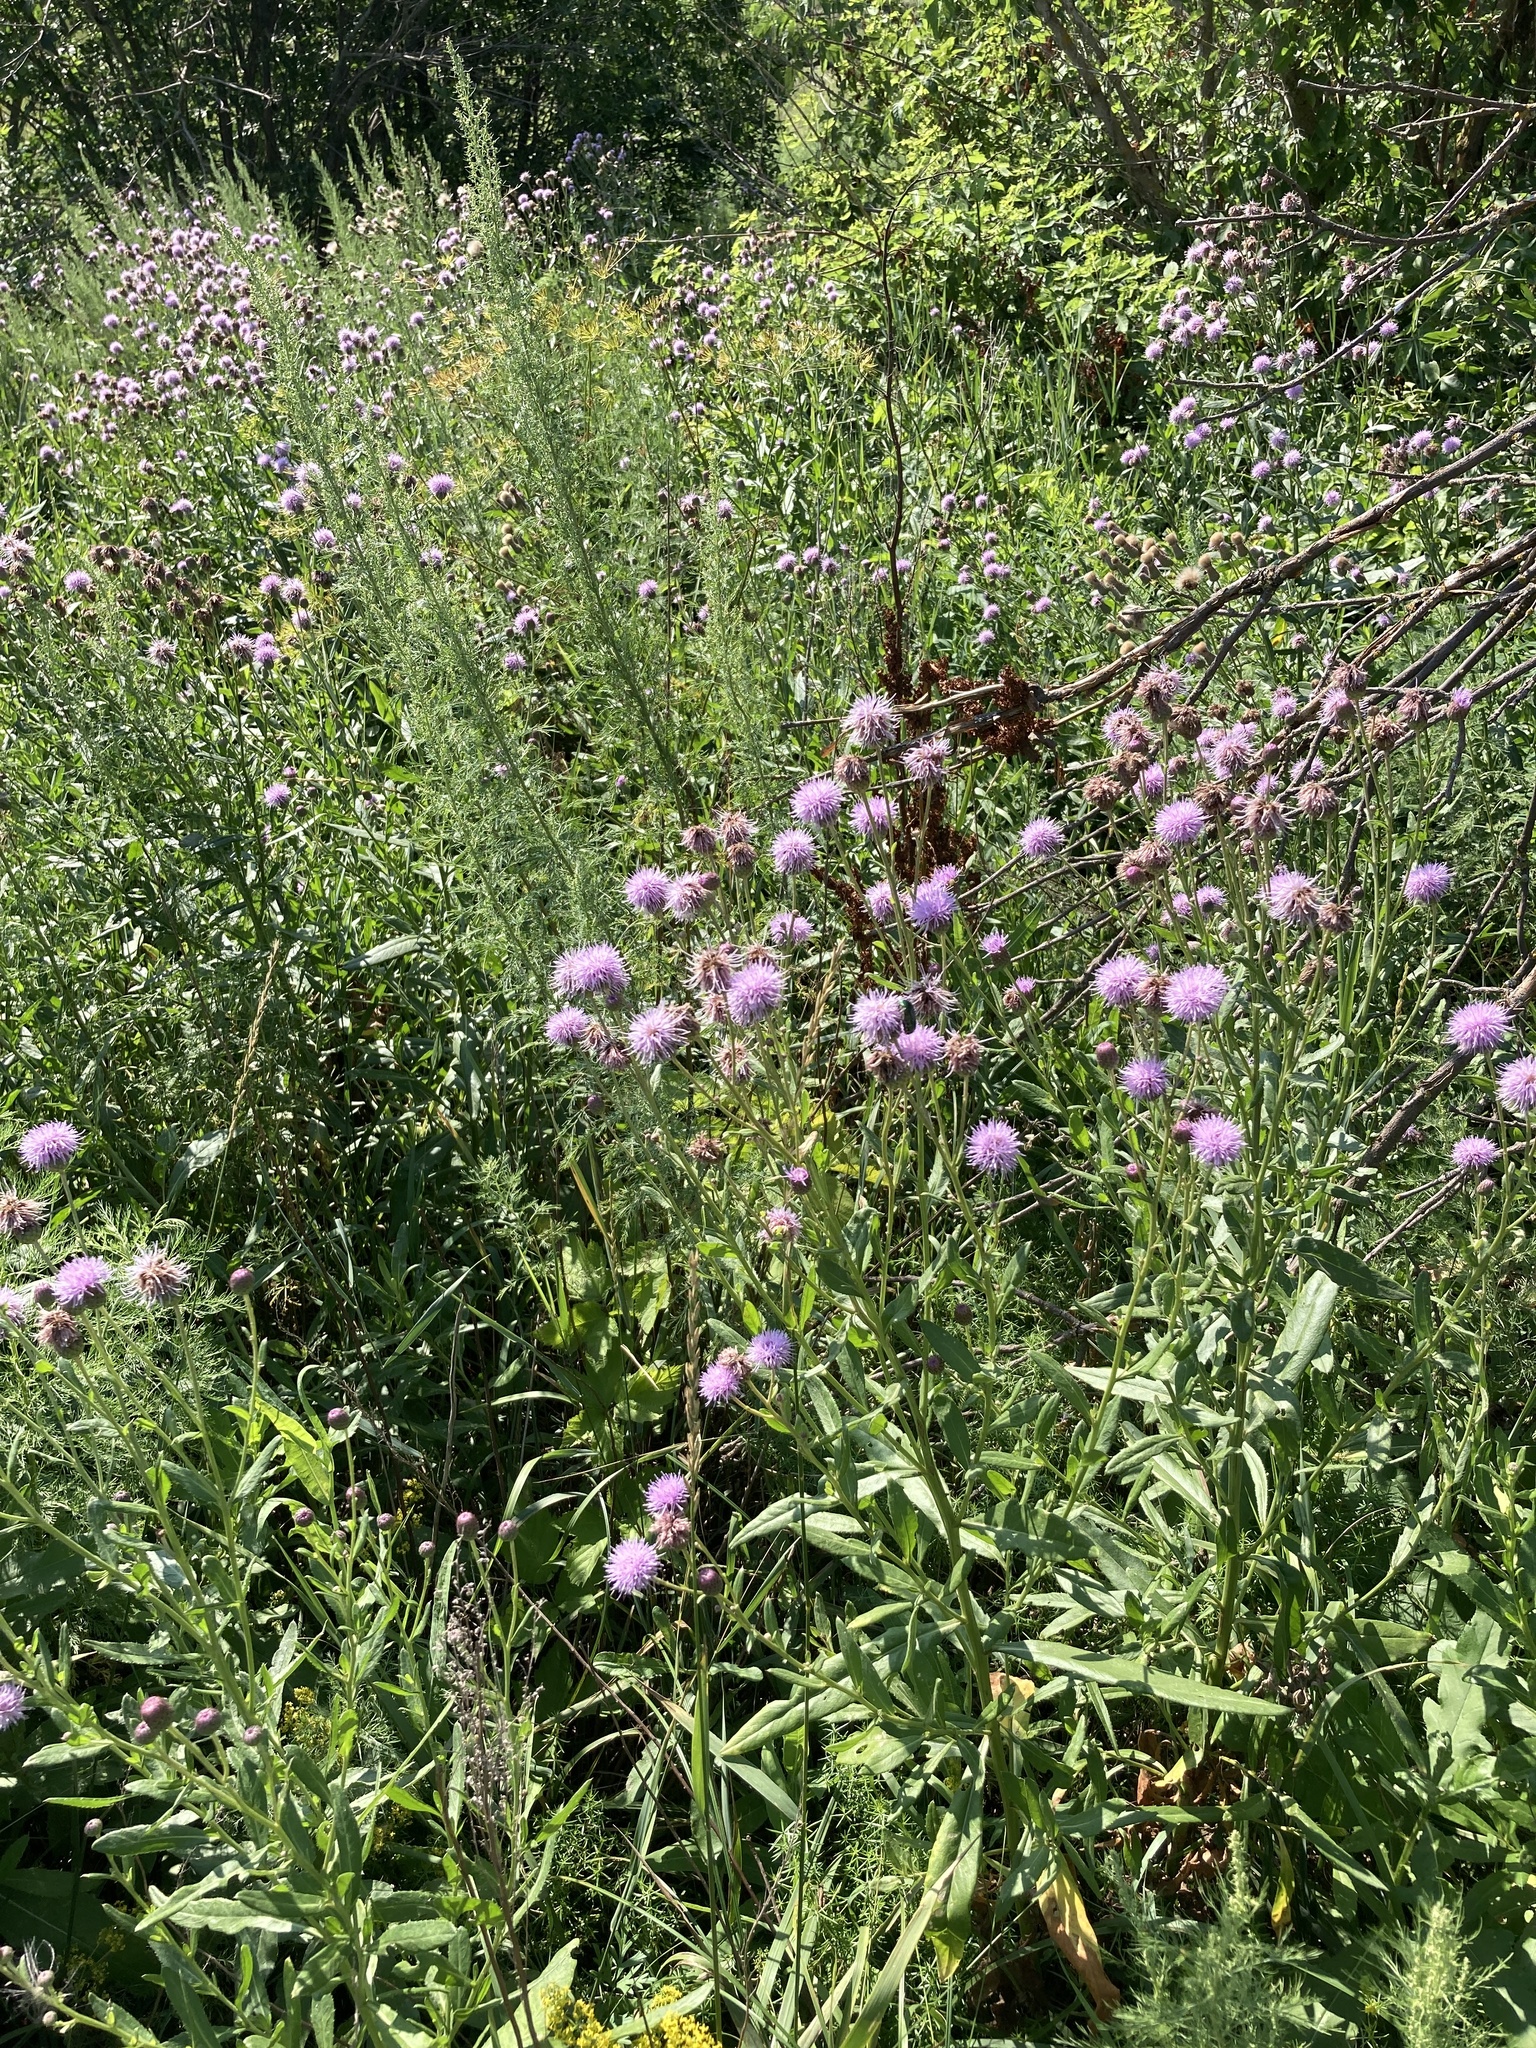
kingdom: Plantae
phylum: Tracheophyta
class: Magnoliopsida
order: Asterales
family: Asteraceae
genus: Cirsium
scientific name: Cirsium arvense
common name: Creeping thistle
